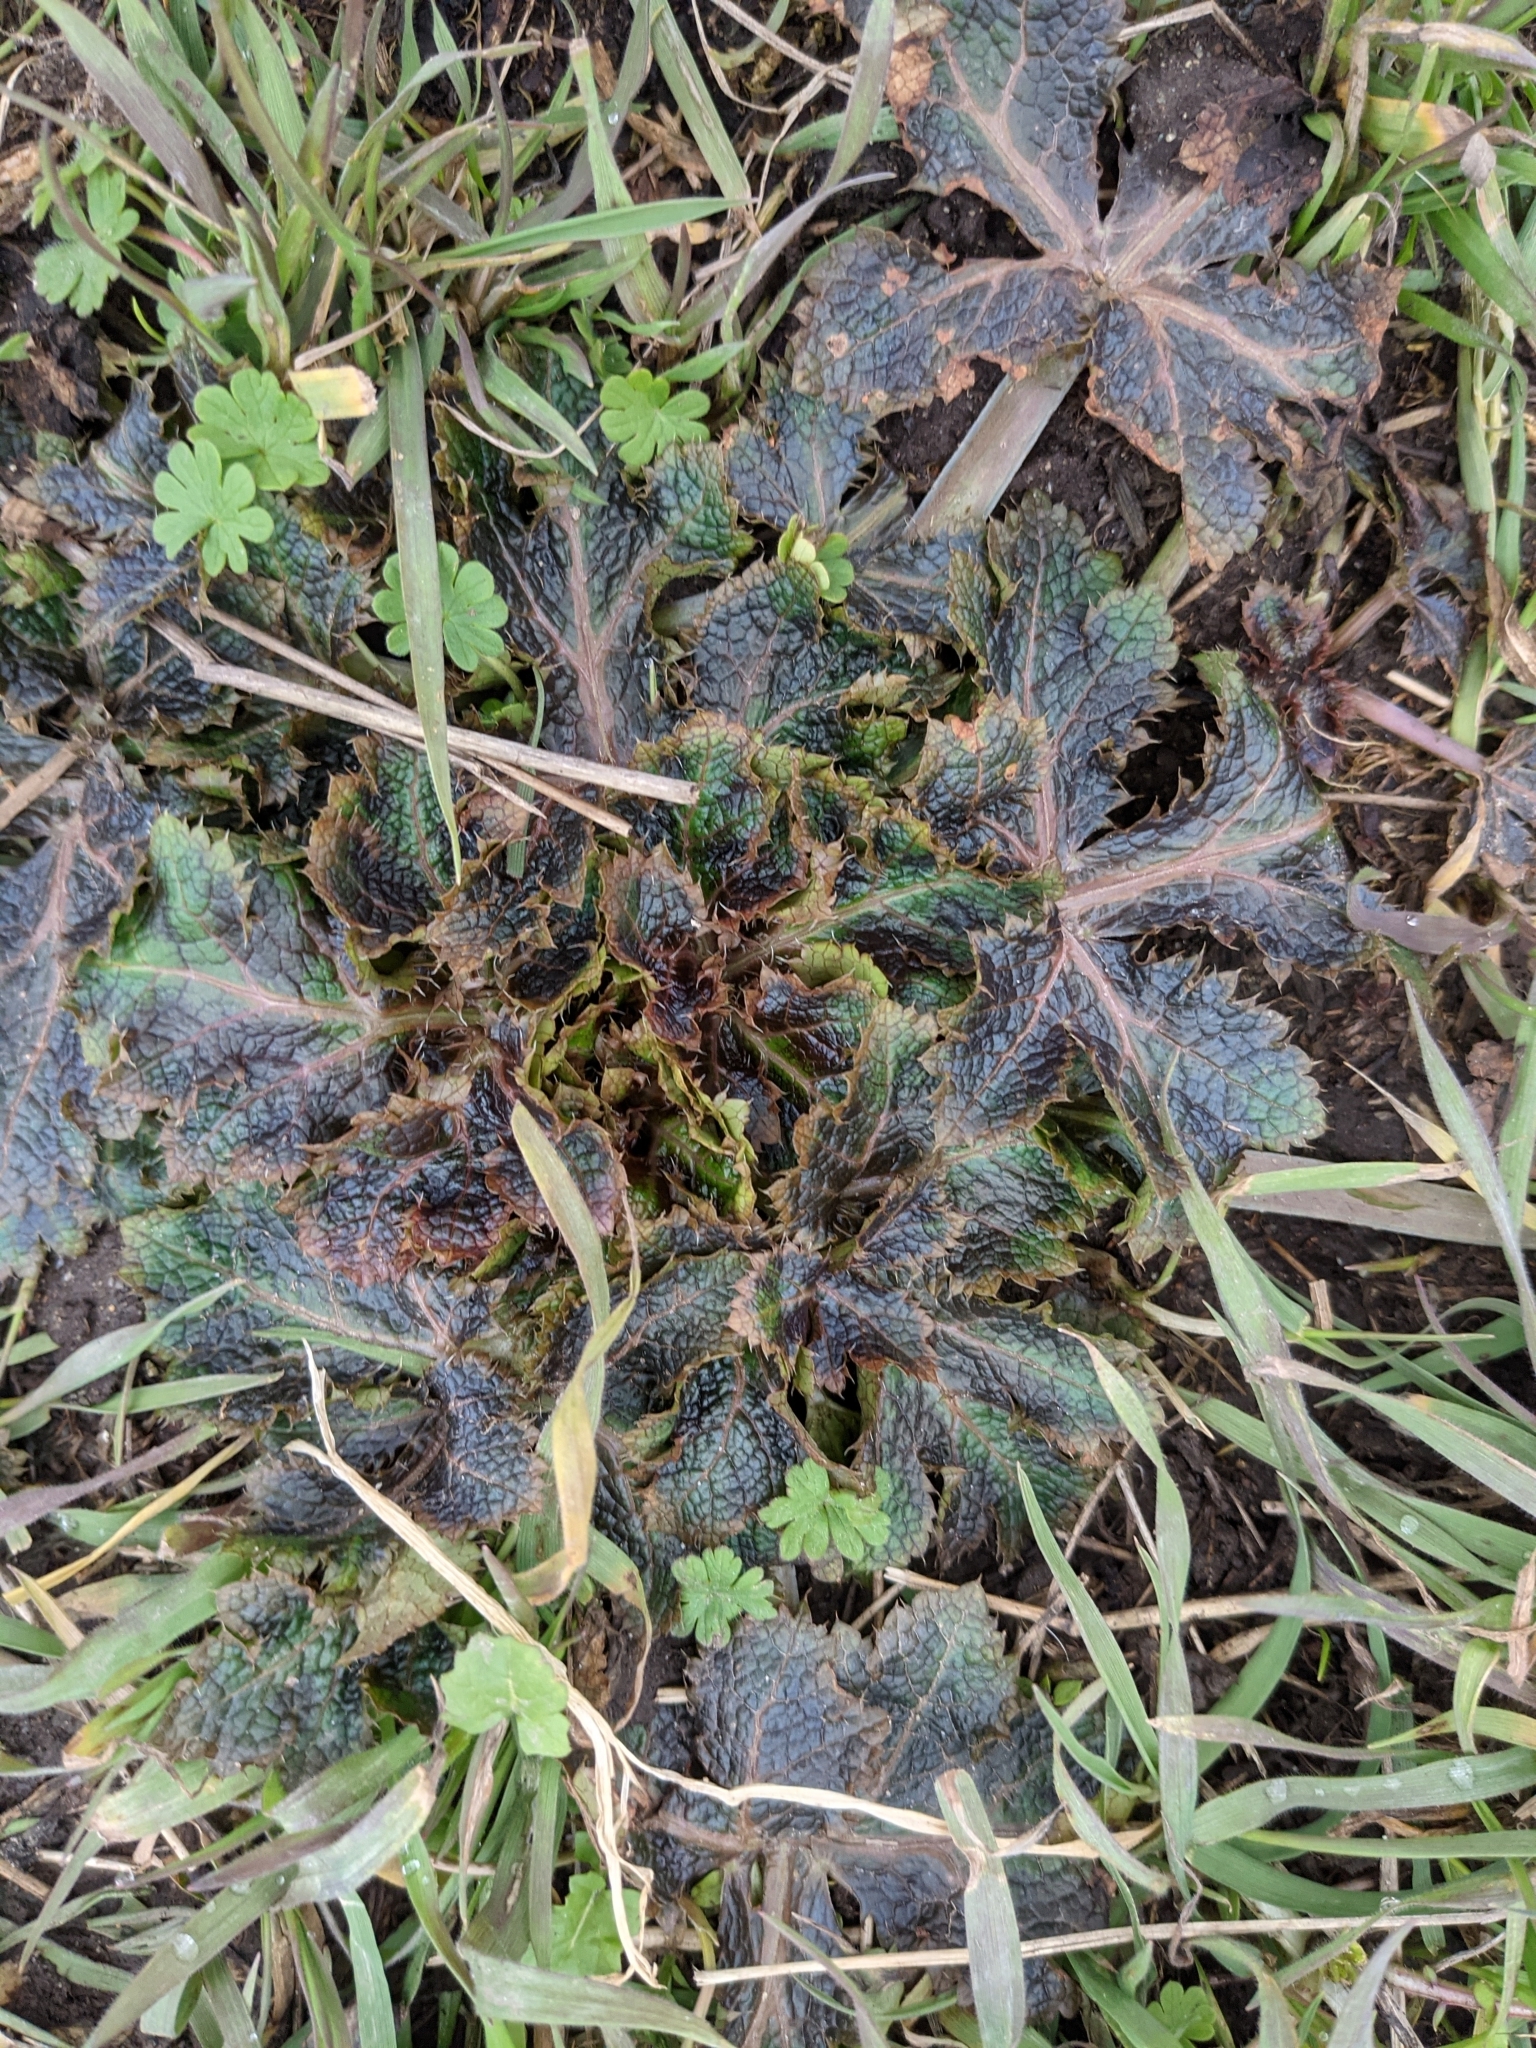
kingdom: Plantae
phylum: Tracheophyta
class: Magnoliopsida
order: Apiales
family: Apiaceae
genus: Sanicula
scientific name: Sanicula crassicaulis
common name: Western snakeroot
